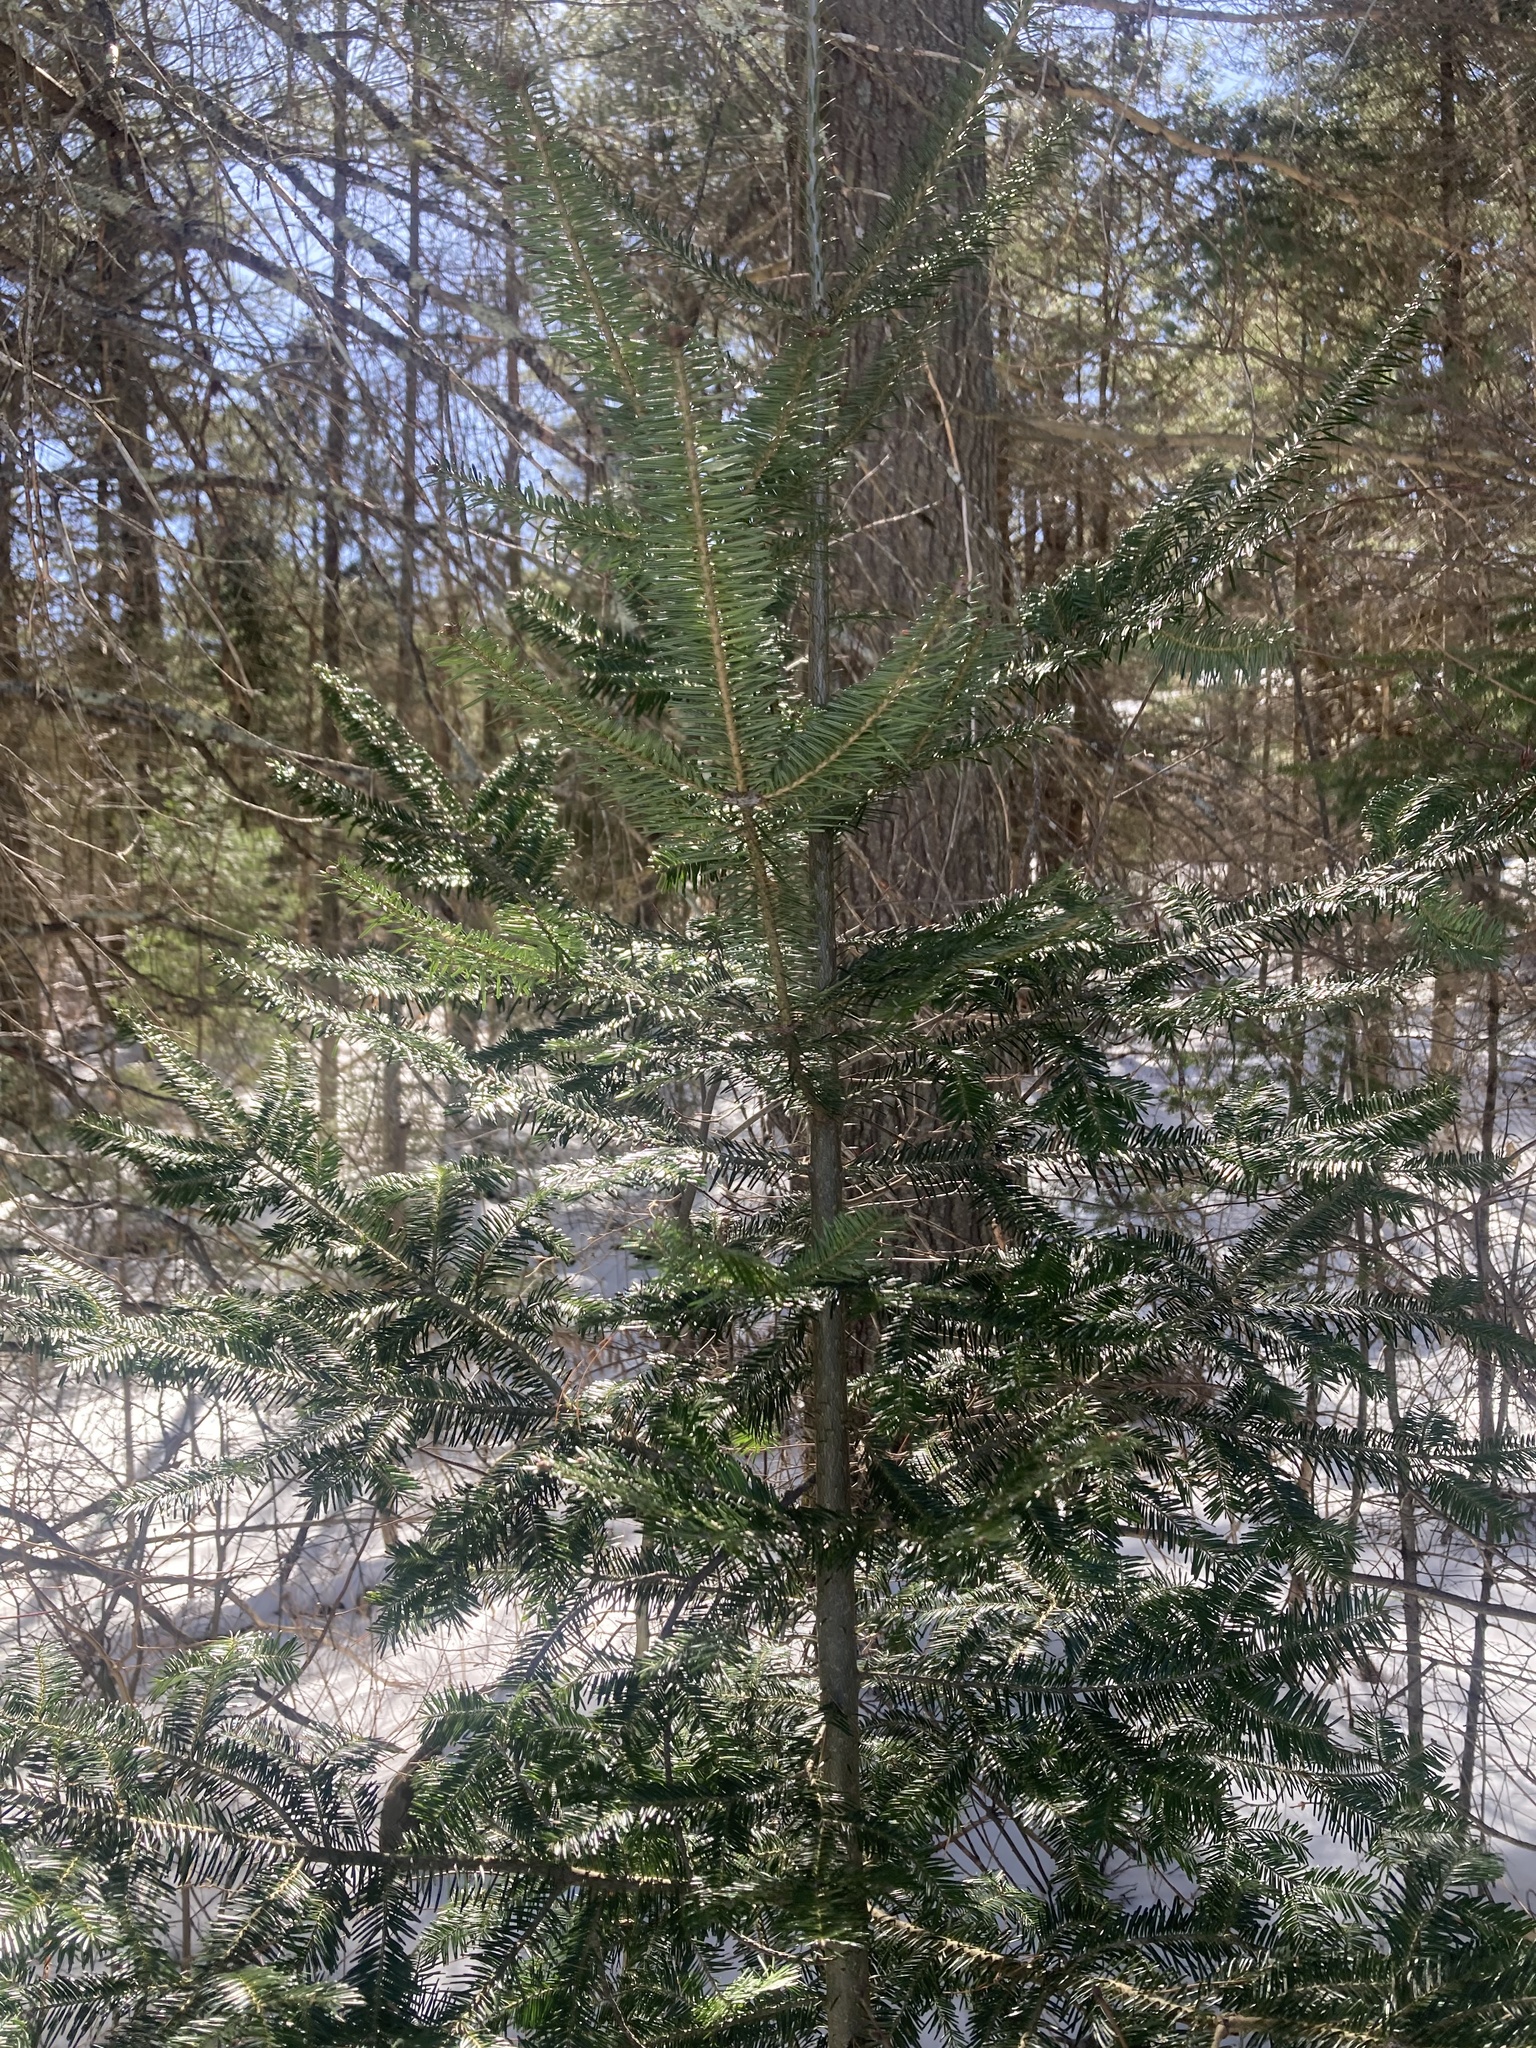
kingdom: Plantae
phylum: Tracheophyta
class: Pinopsida
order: Pinales
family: Pinaceae
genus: Abies
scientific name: Abies balsamea
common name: Balsam fir
